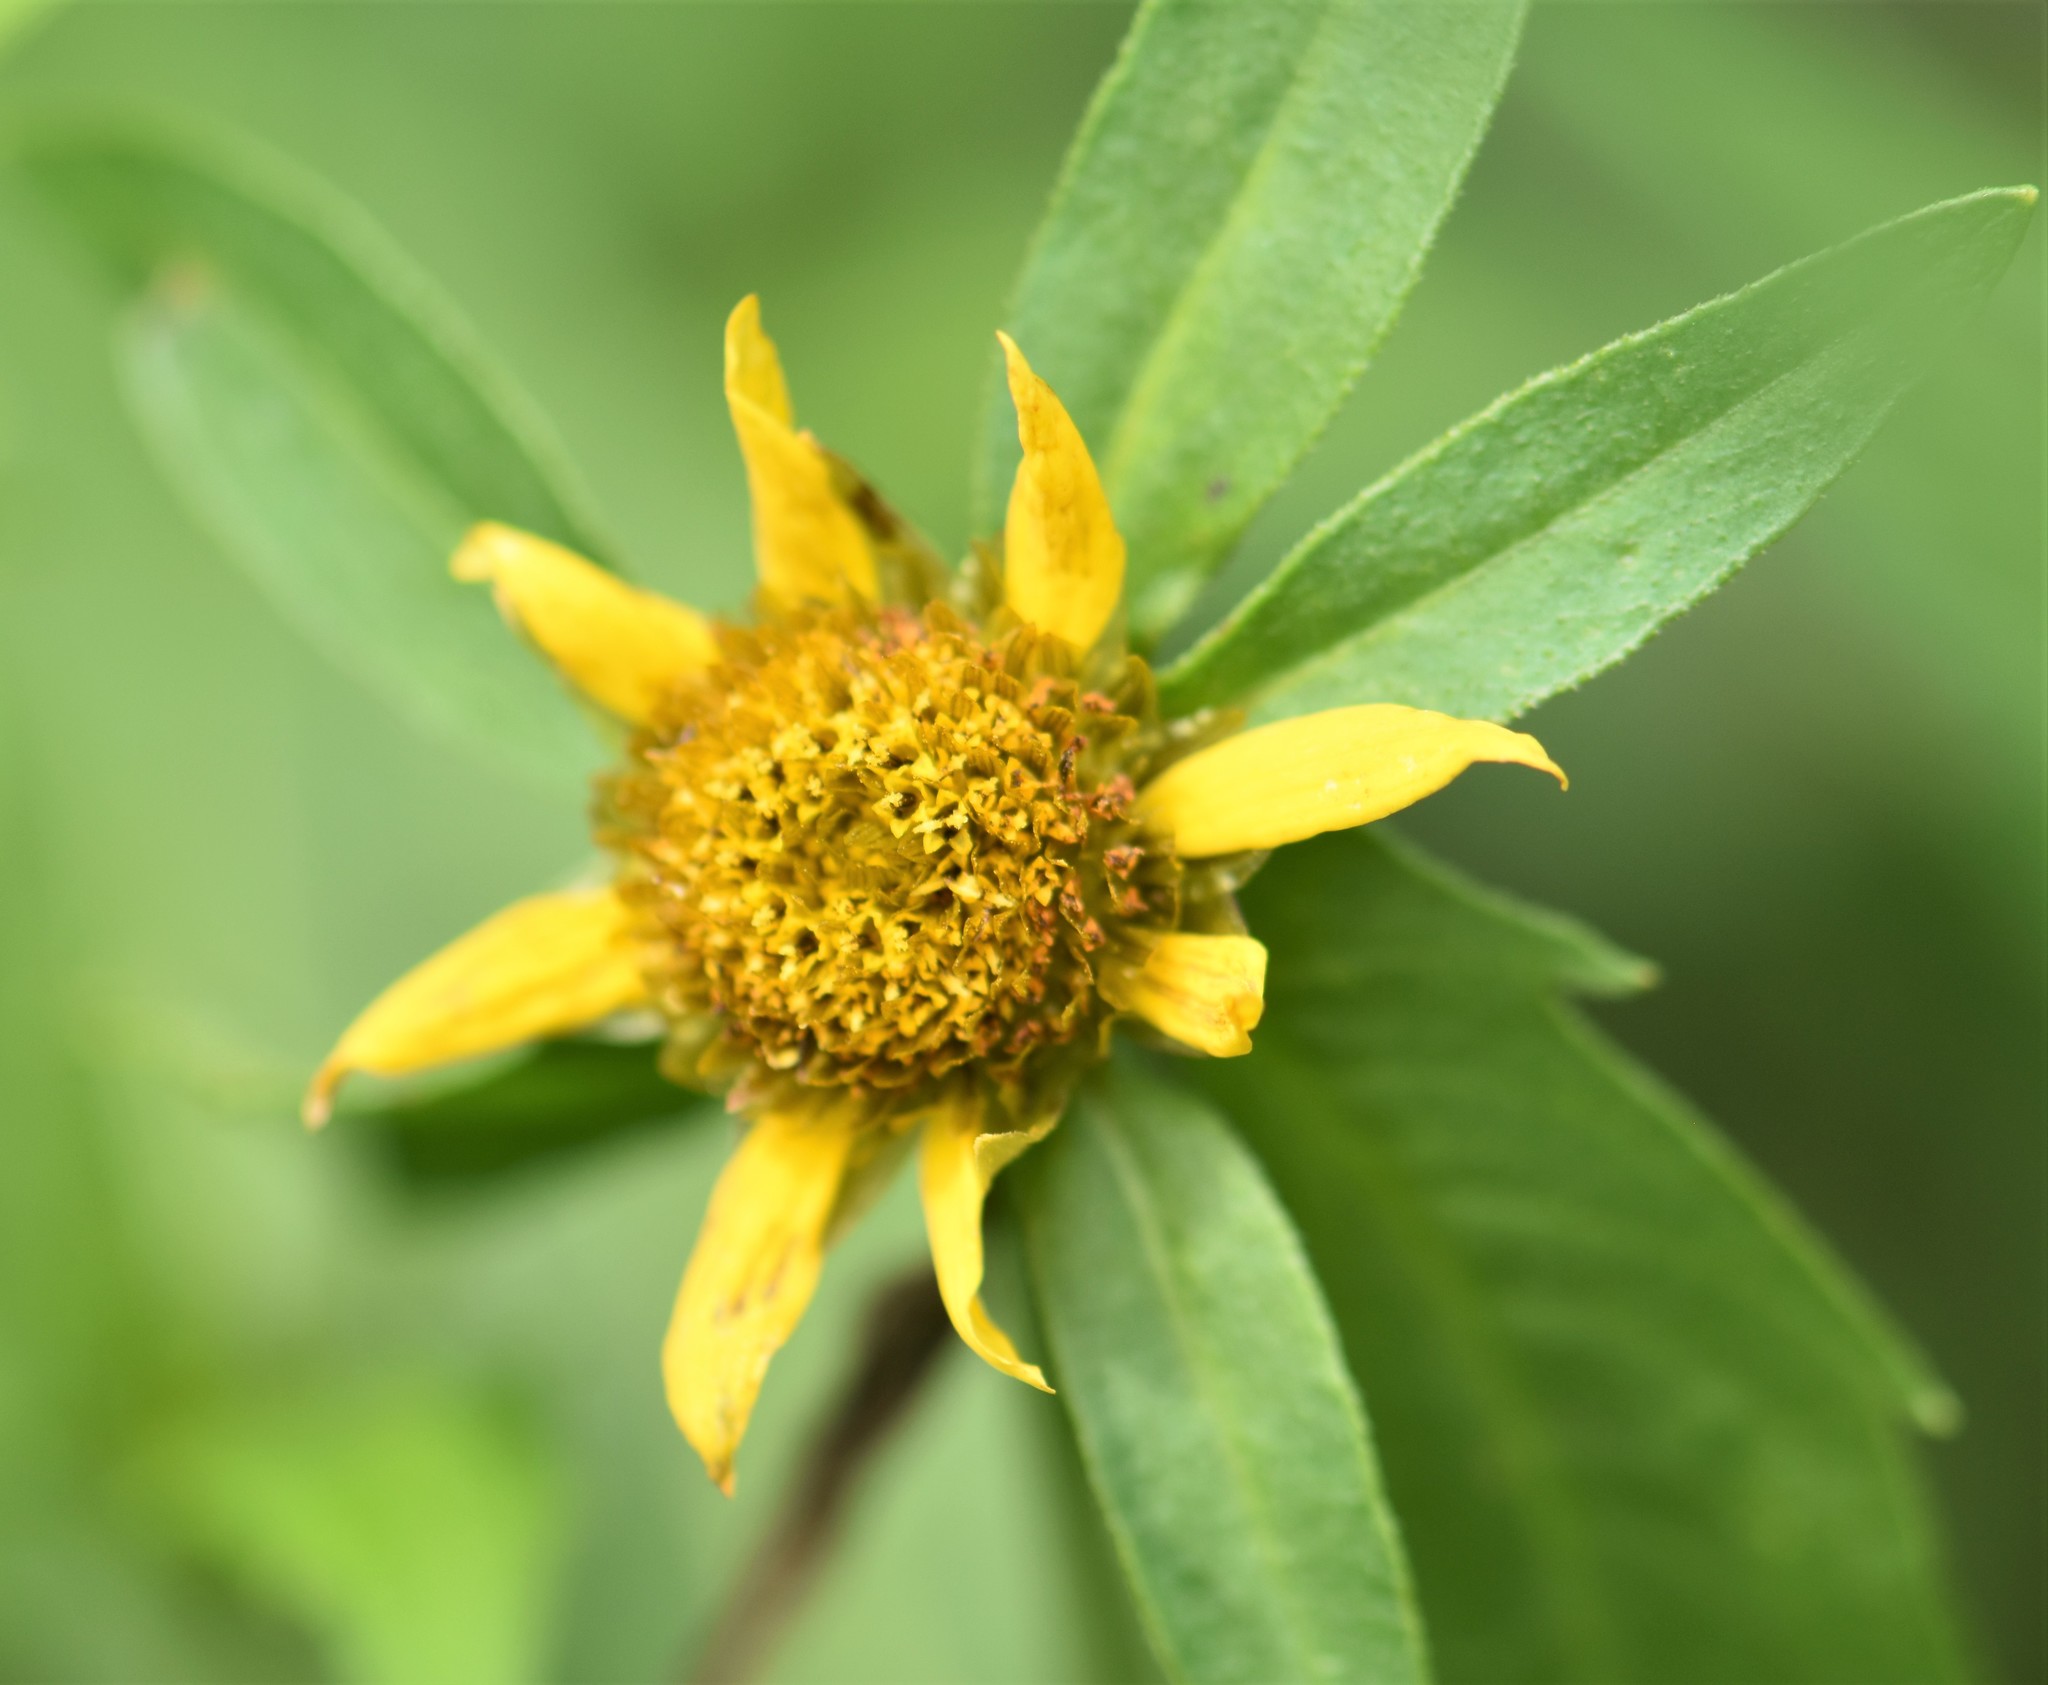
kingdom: Plantae
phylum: Tracheophyta
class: Magnoliopsida
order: Asterales
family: Asteraceae
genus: Bidens
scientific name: Bidens cernua
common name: Nodding bur-marigold
